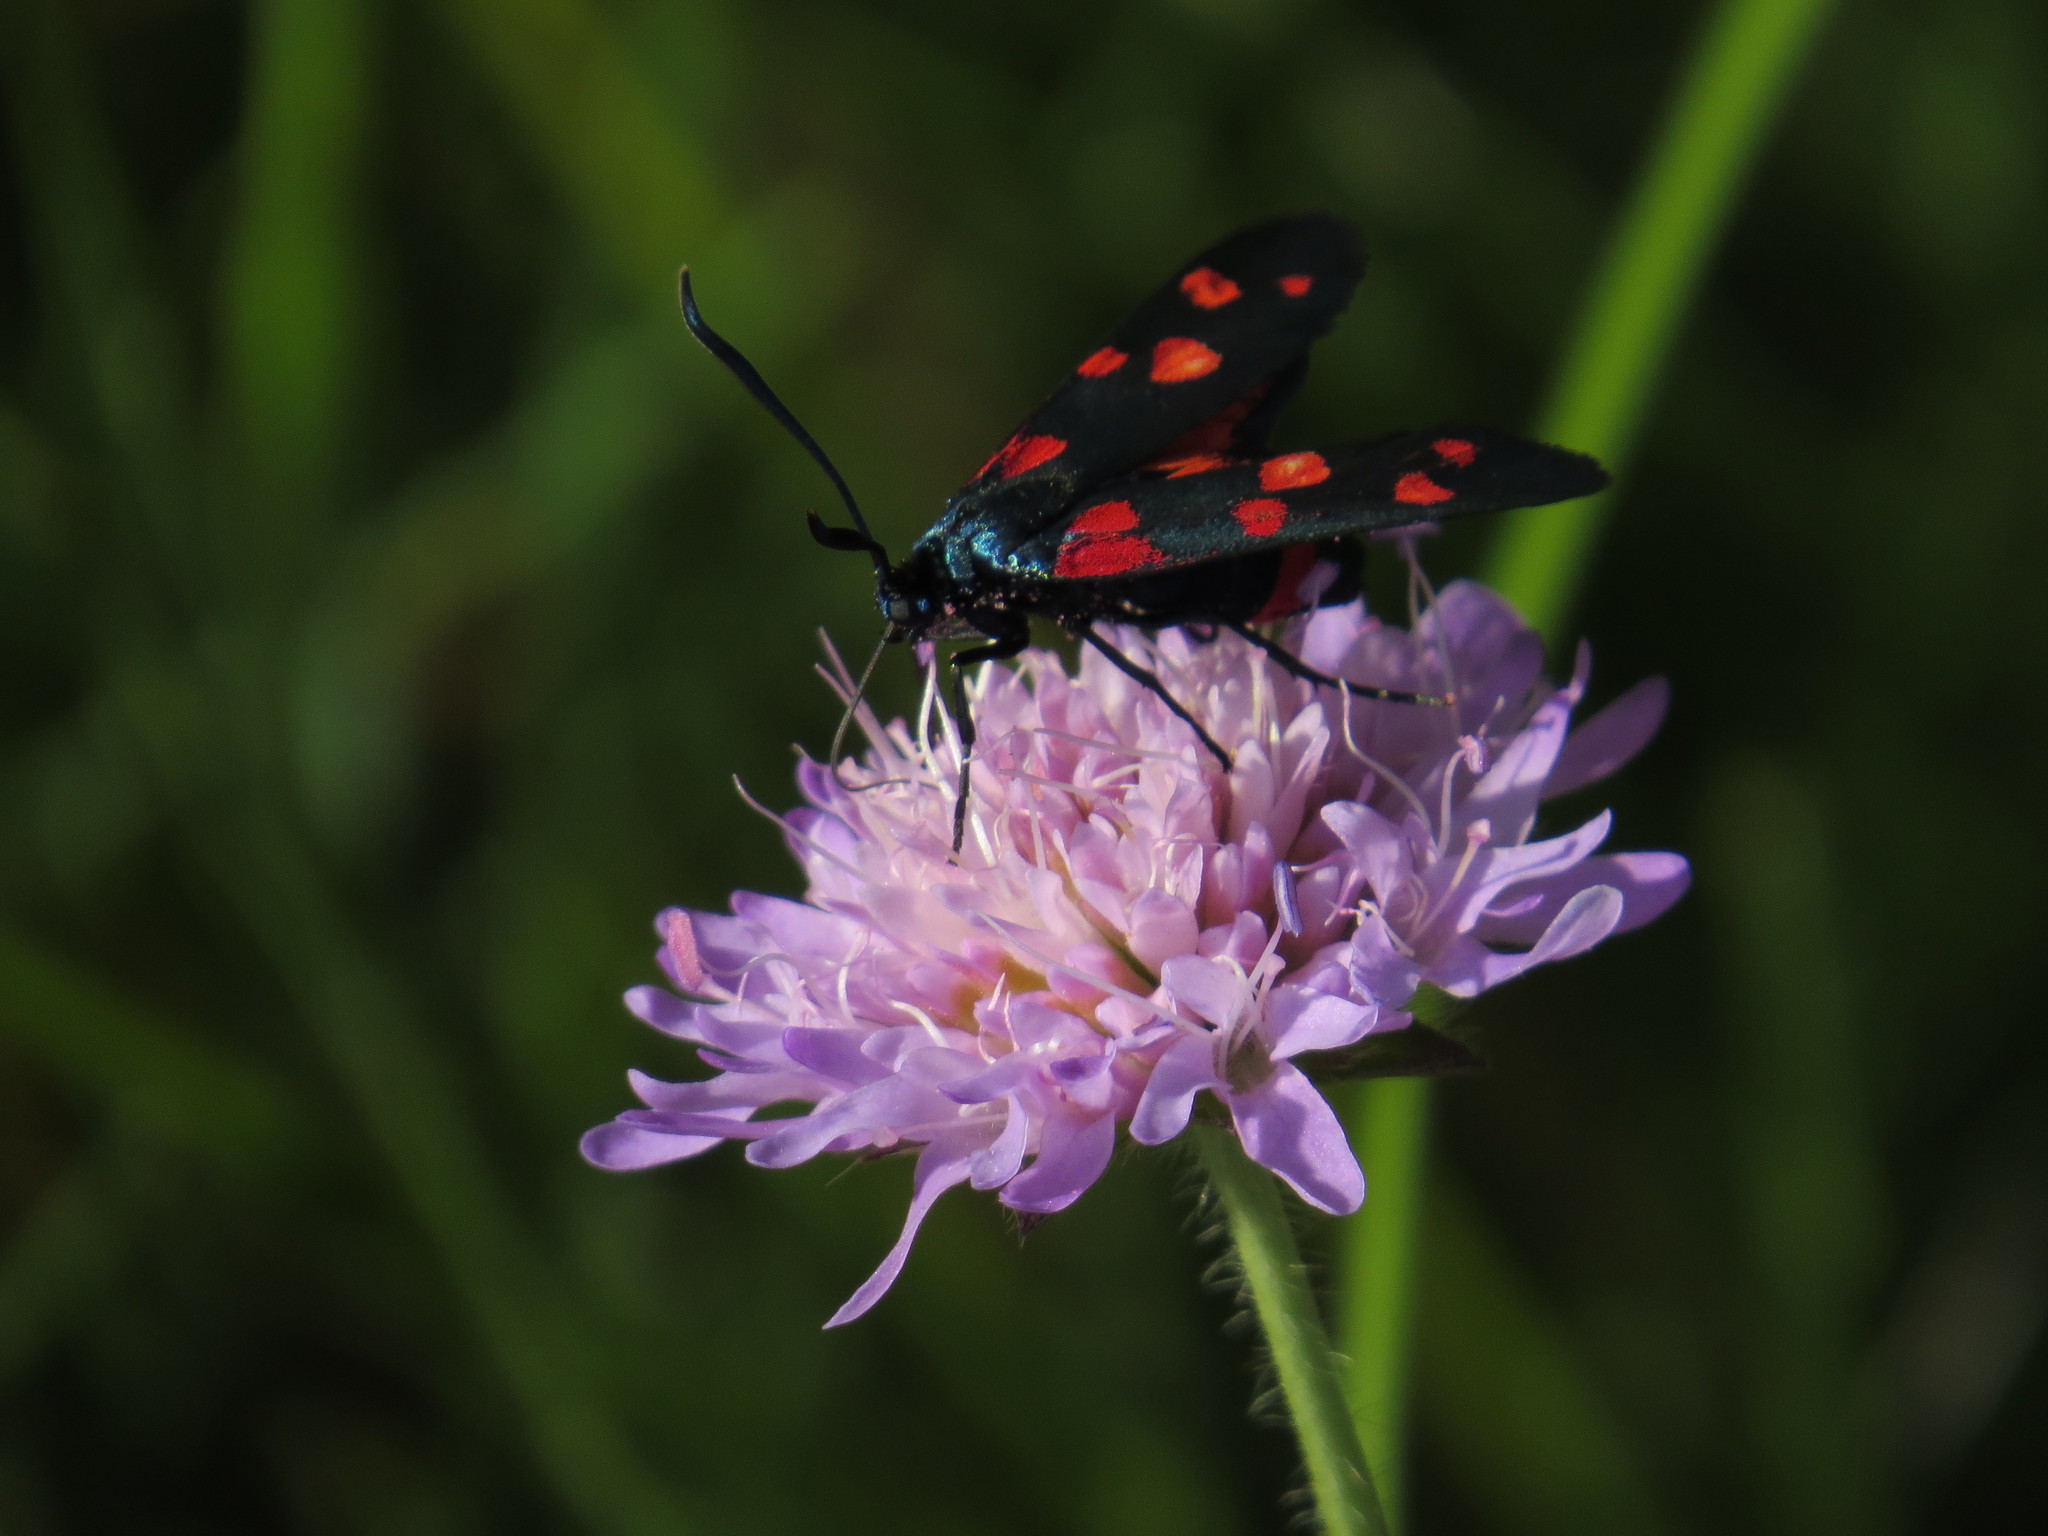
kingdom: Animalia
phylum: Arthropoda
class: Insecta
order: Lepidoptera
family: Zygaenidae
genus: Zygaena
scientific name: Zygaena ephialtes
